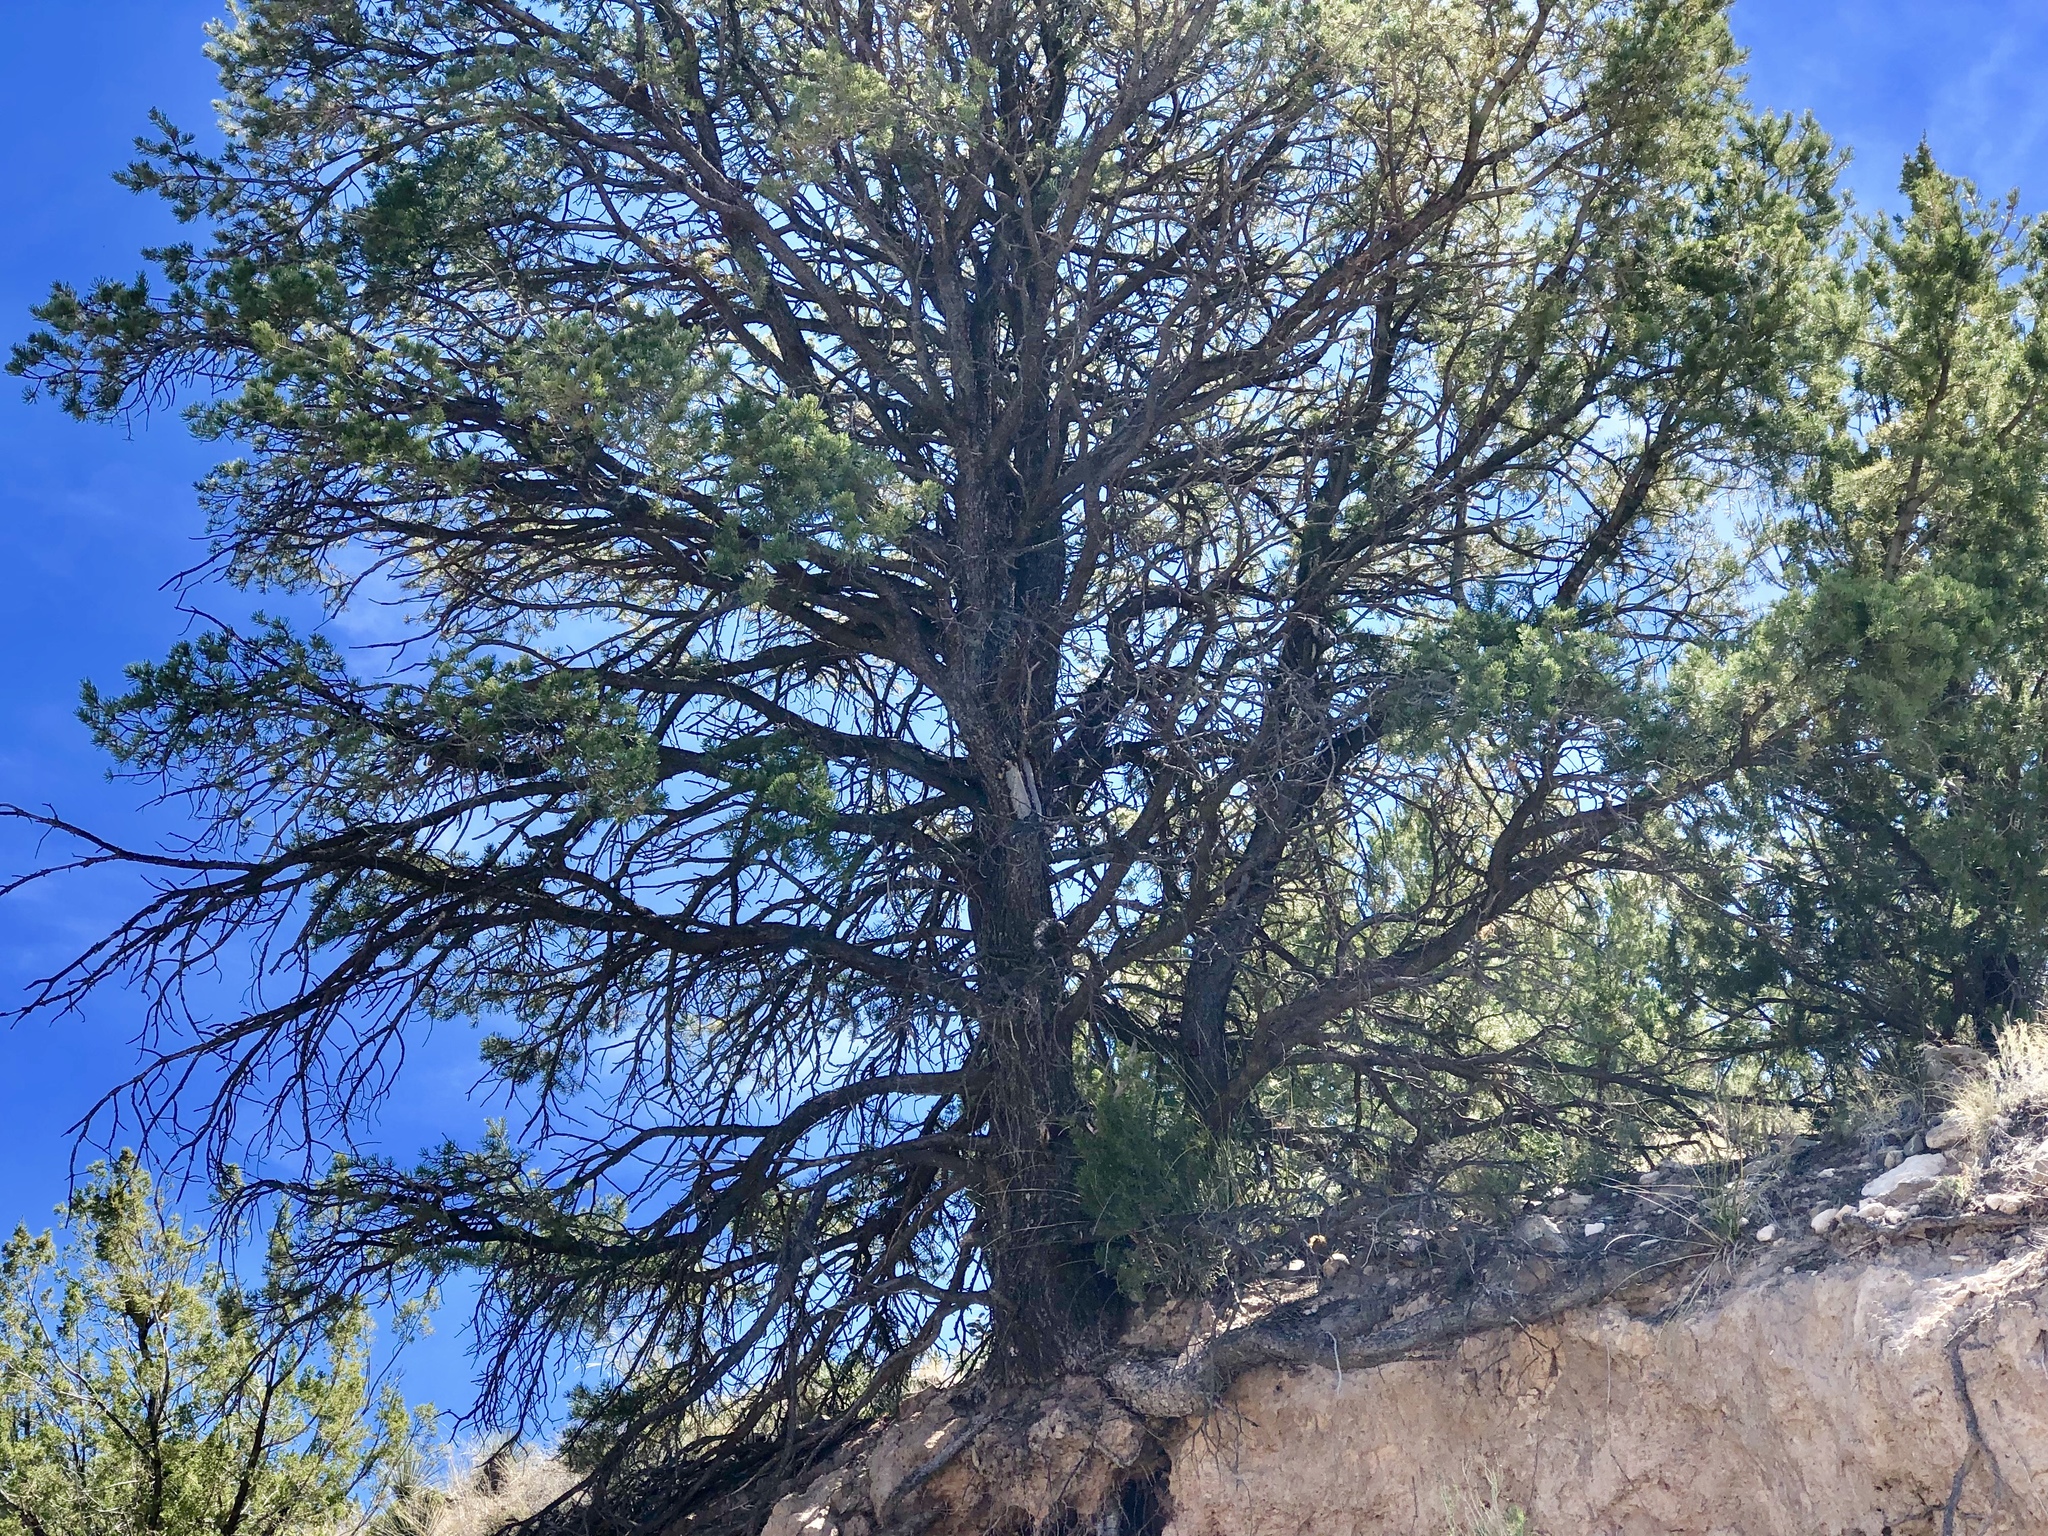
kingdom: Plantae
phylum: Tracheophyta
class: Pinopsida
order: Pinales
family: Pinaceae
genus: Pinus
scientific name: Pinus edulis
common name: Colorado pinyon
